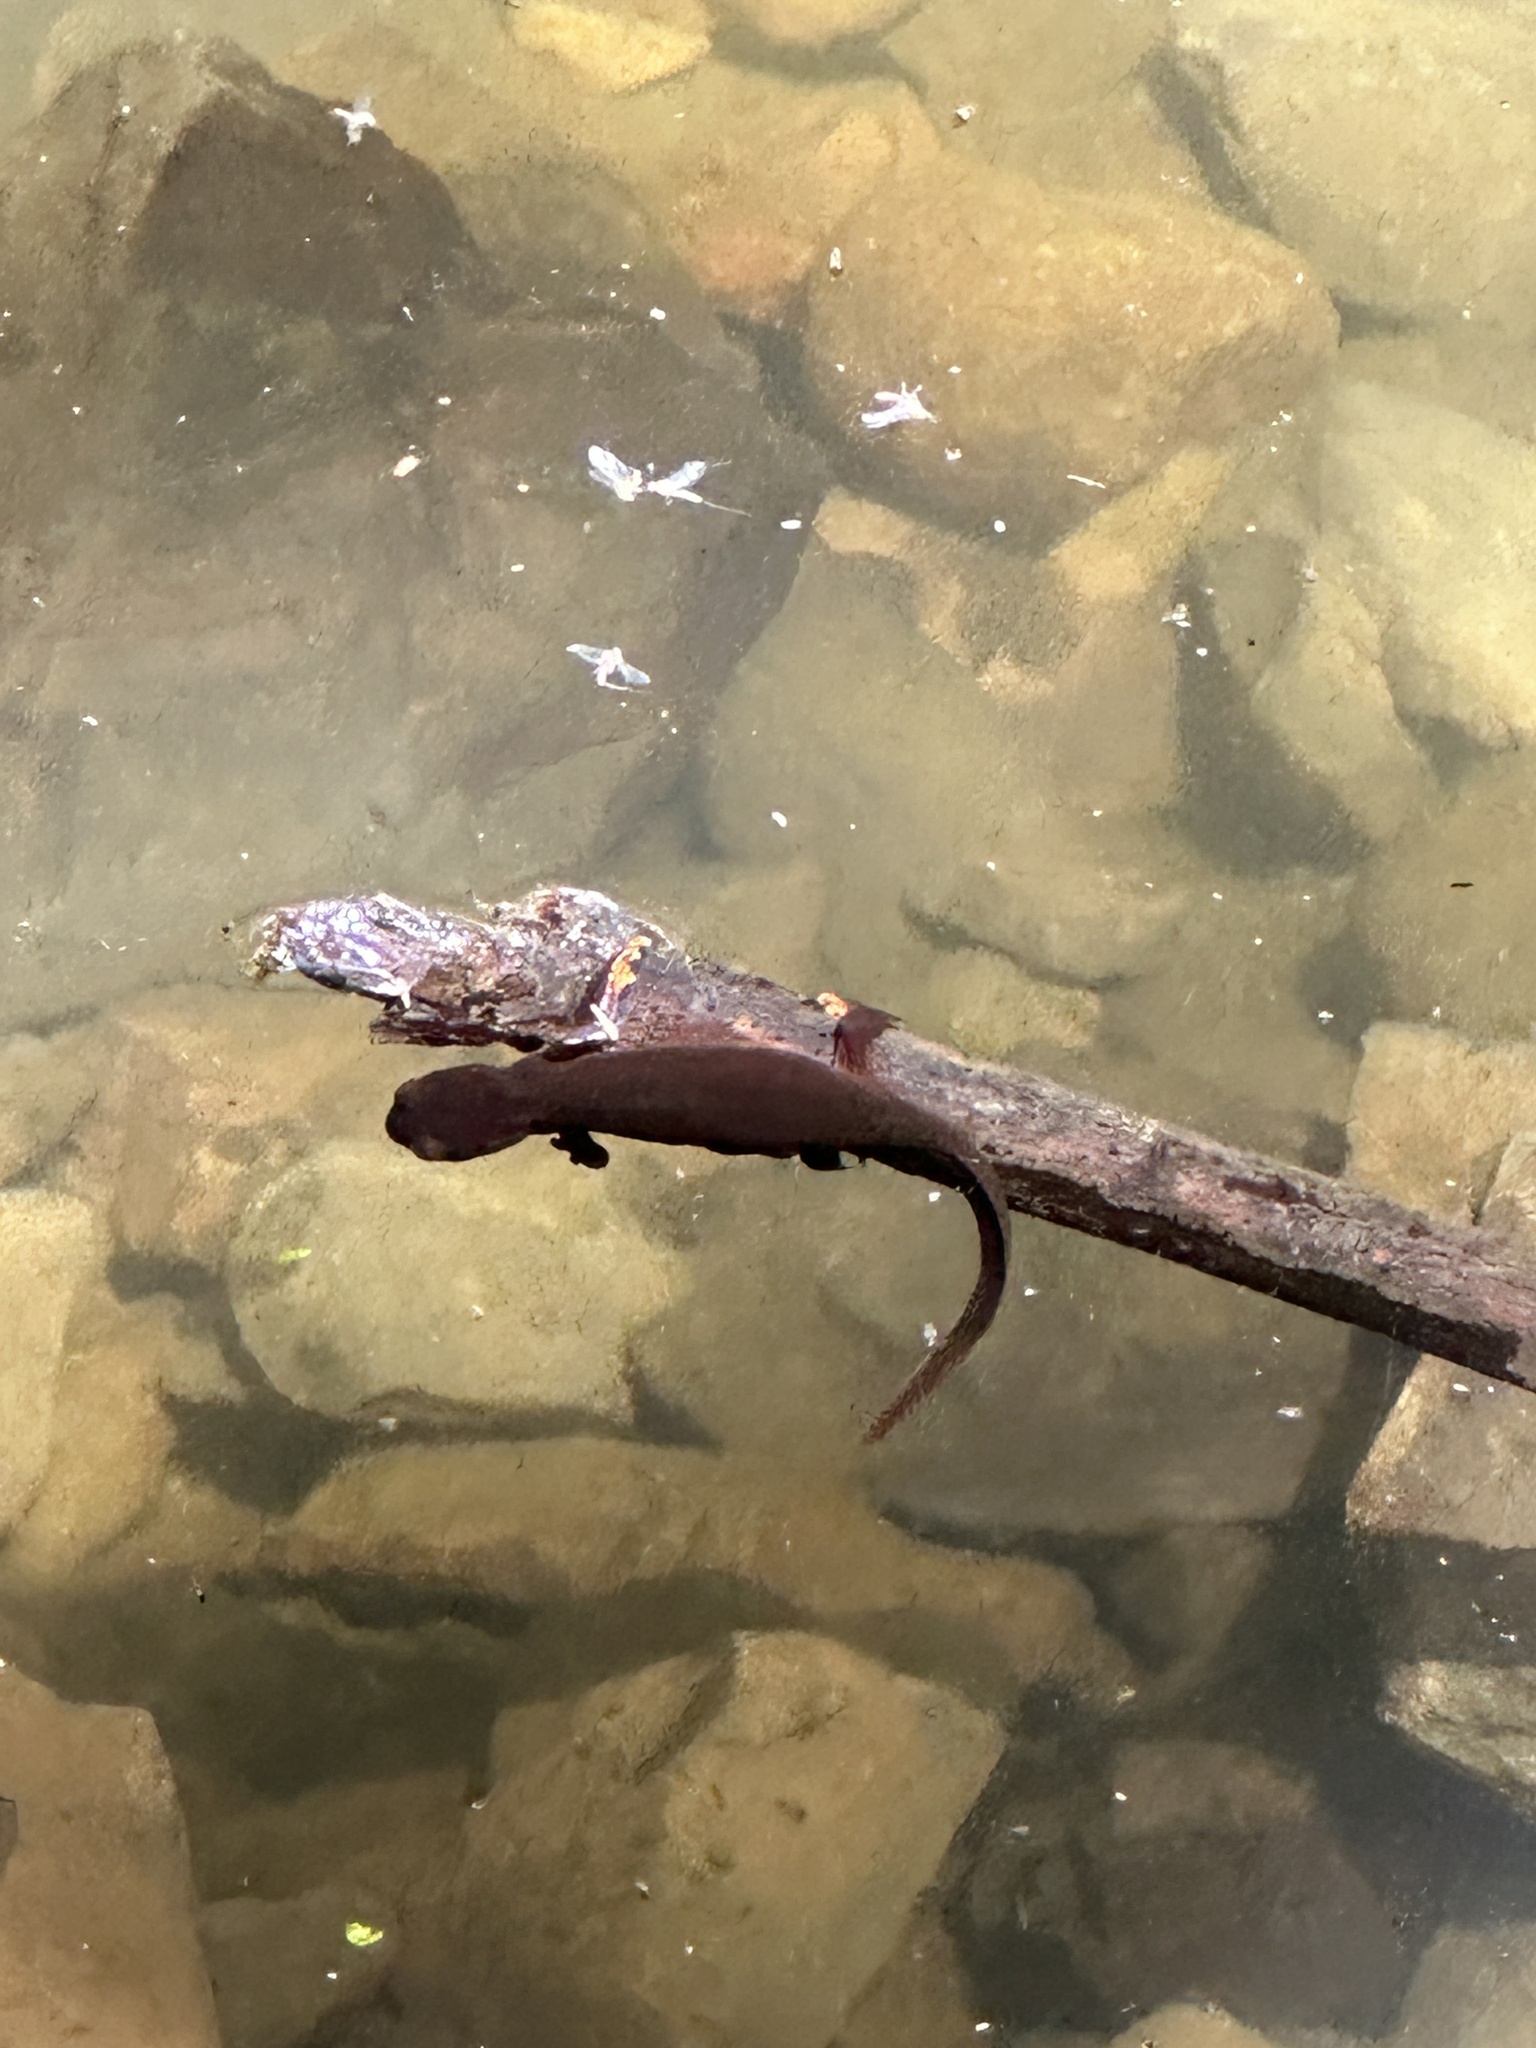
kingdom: Animalia
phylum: Chordata
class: Amphibia
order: Caudata
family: Salamandridae
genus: Taricha
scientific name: Taricha sierrae
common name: Sierra newt
